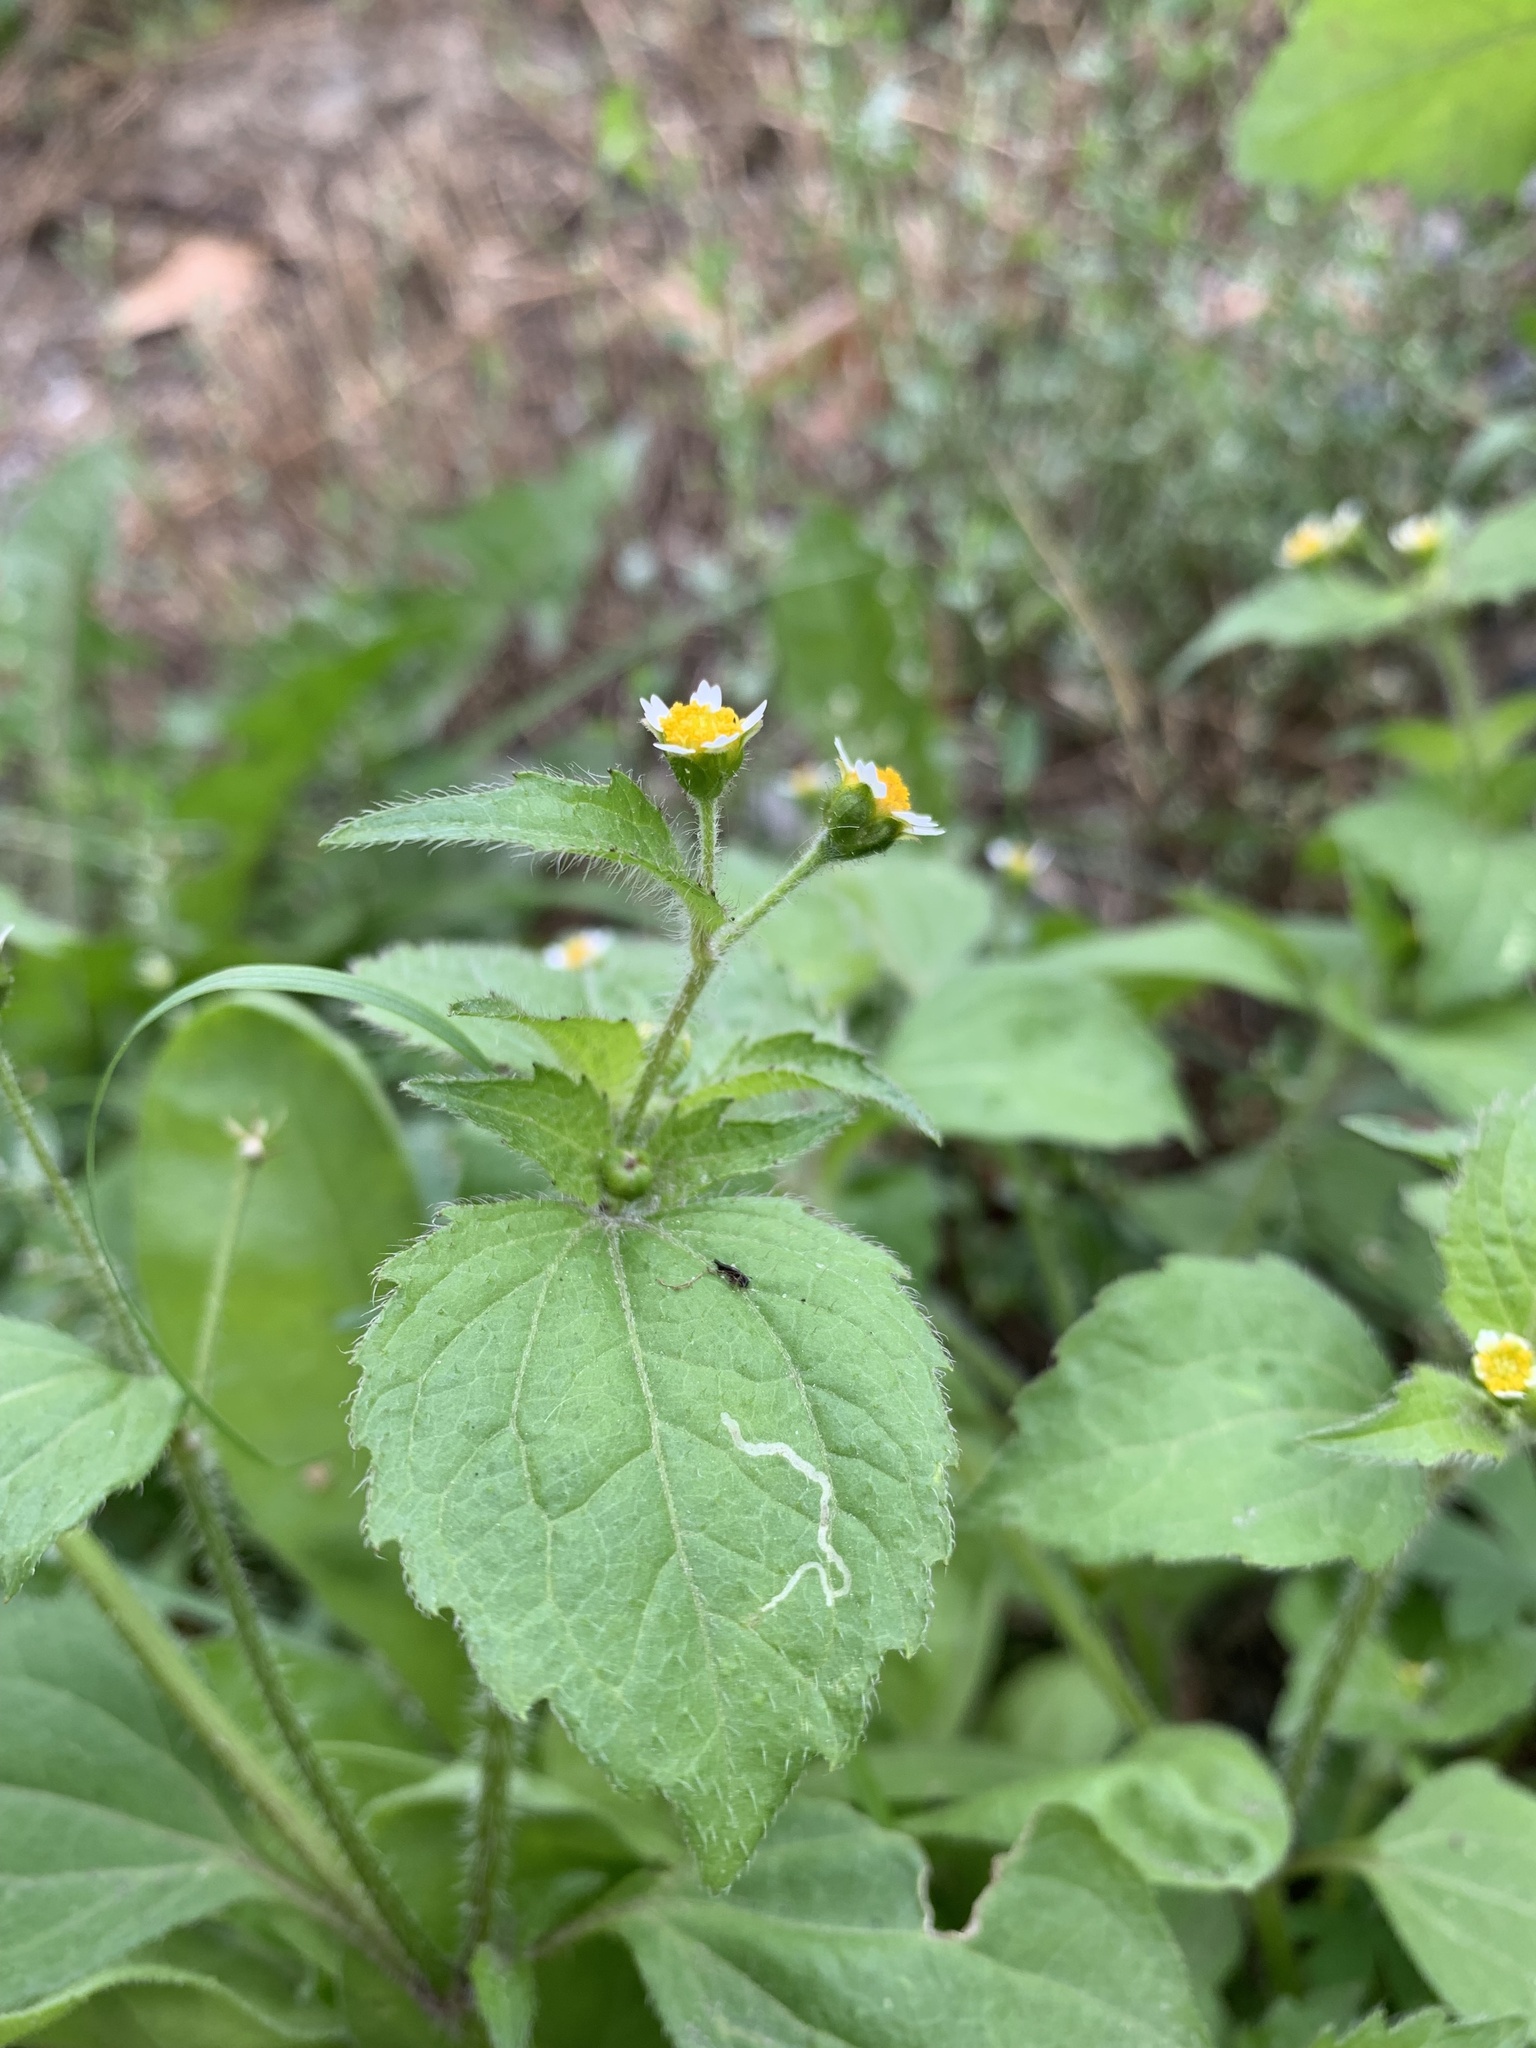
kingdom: Plantae
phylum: Tracheophyta
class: Magnoliopsida
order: Asterales
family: Asteraceae
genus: Galinsoga
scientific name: Galinsoga quadriradiata
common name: Shaggy soldier
